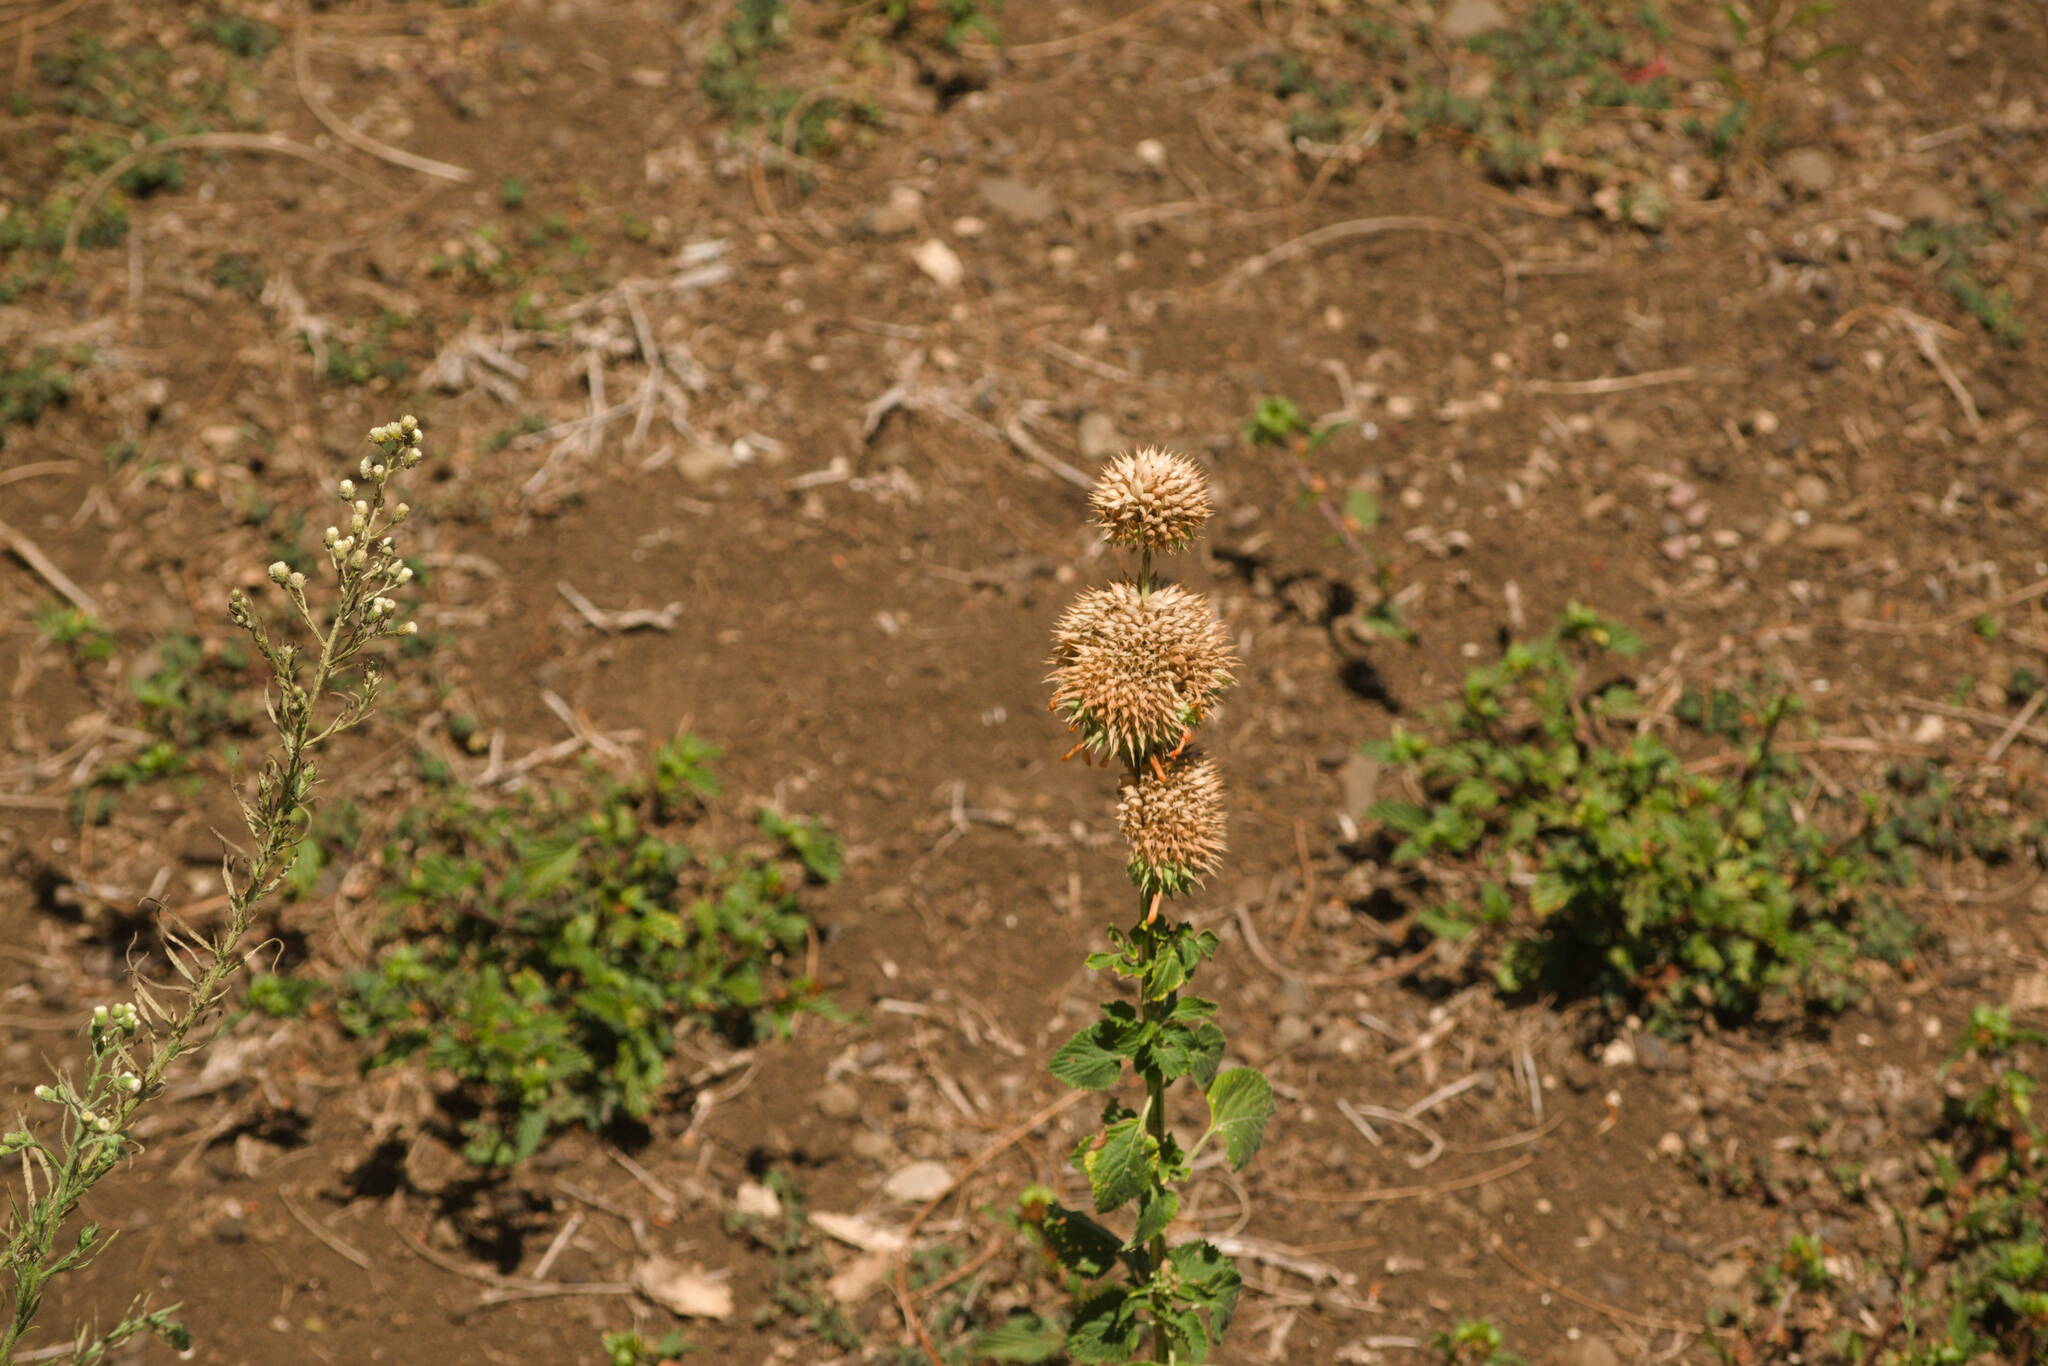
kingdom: Plantae
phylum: Tracheophyta
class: Magnoliopsida
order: Lamiales
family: Lamiaceae
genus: Leonotis
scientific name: Leonotis nepetifolia
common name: Christmas candlestick
